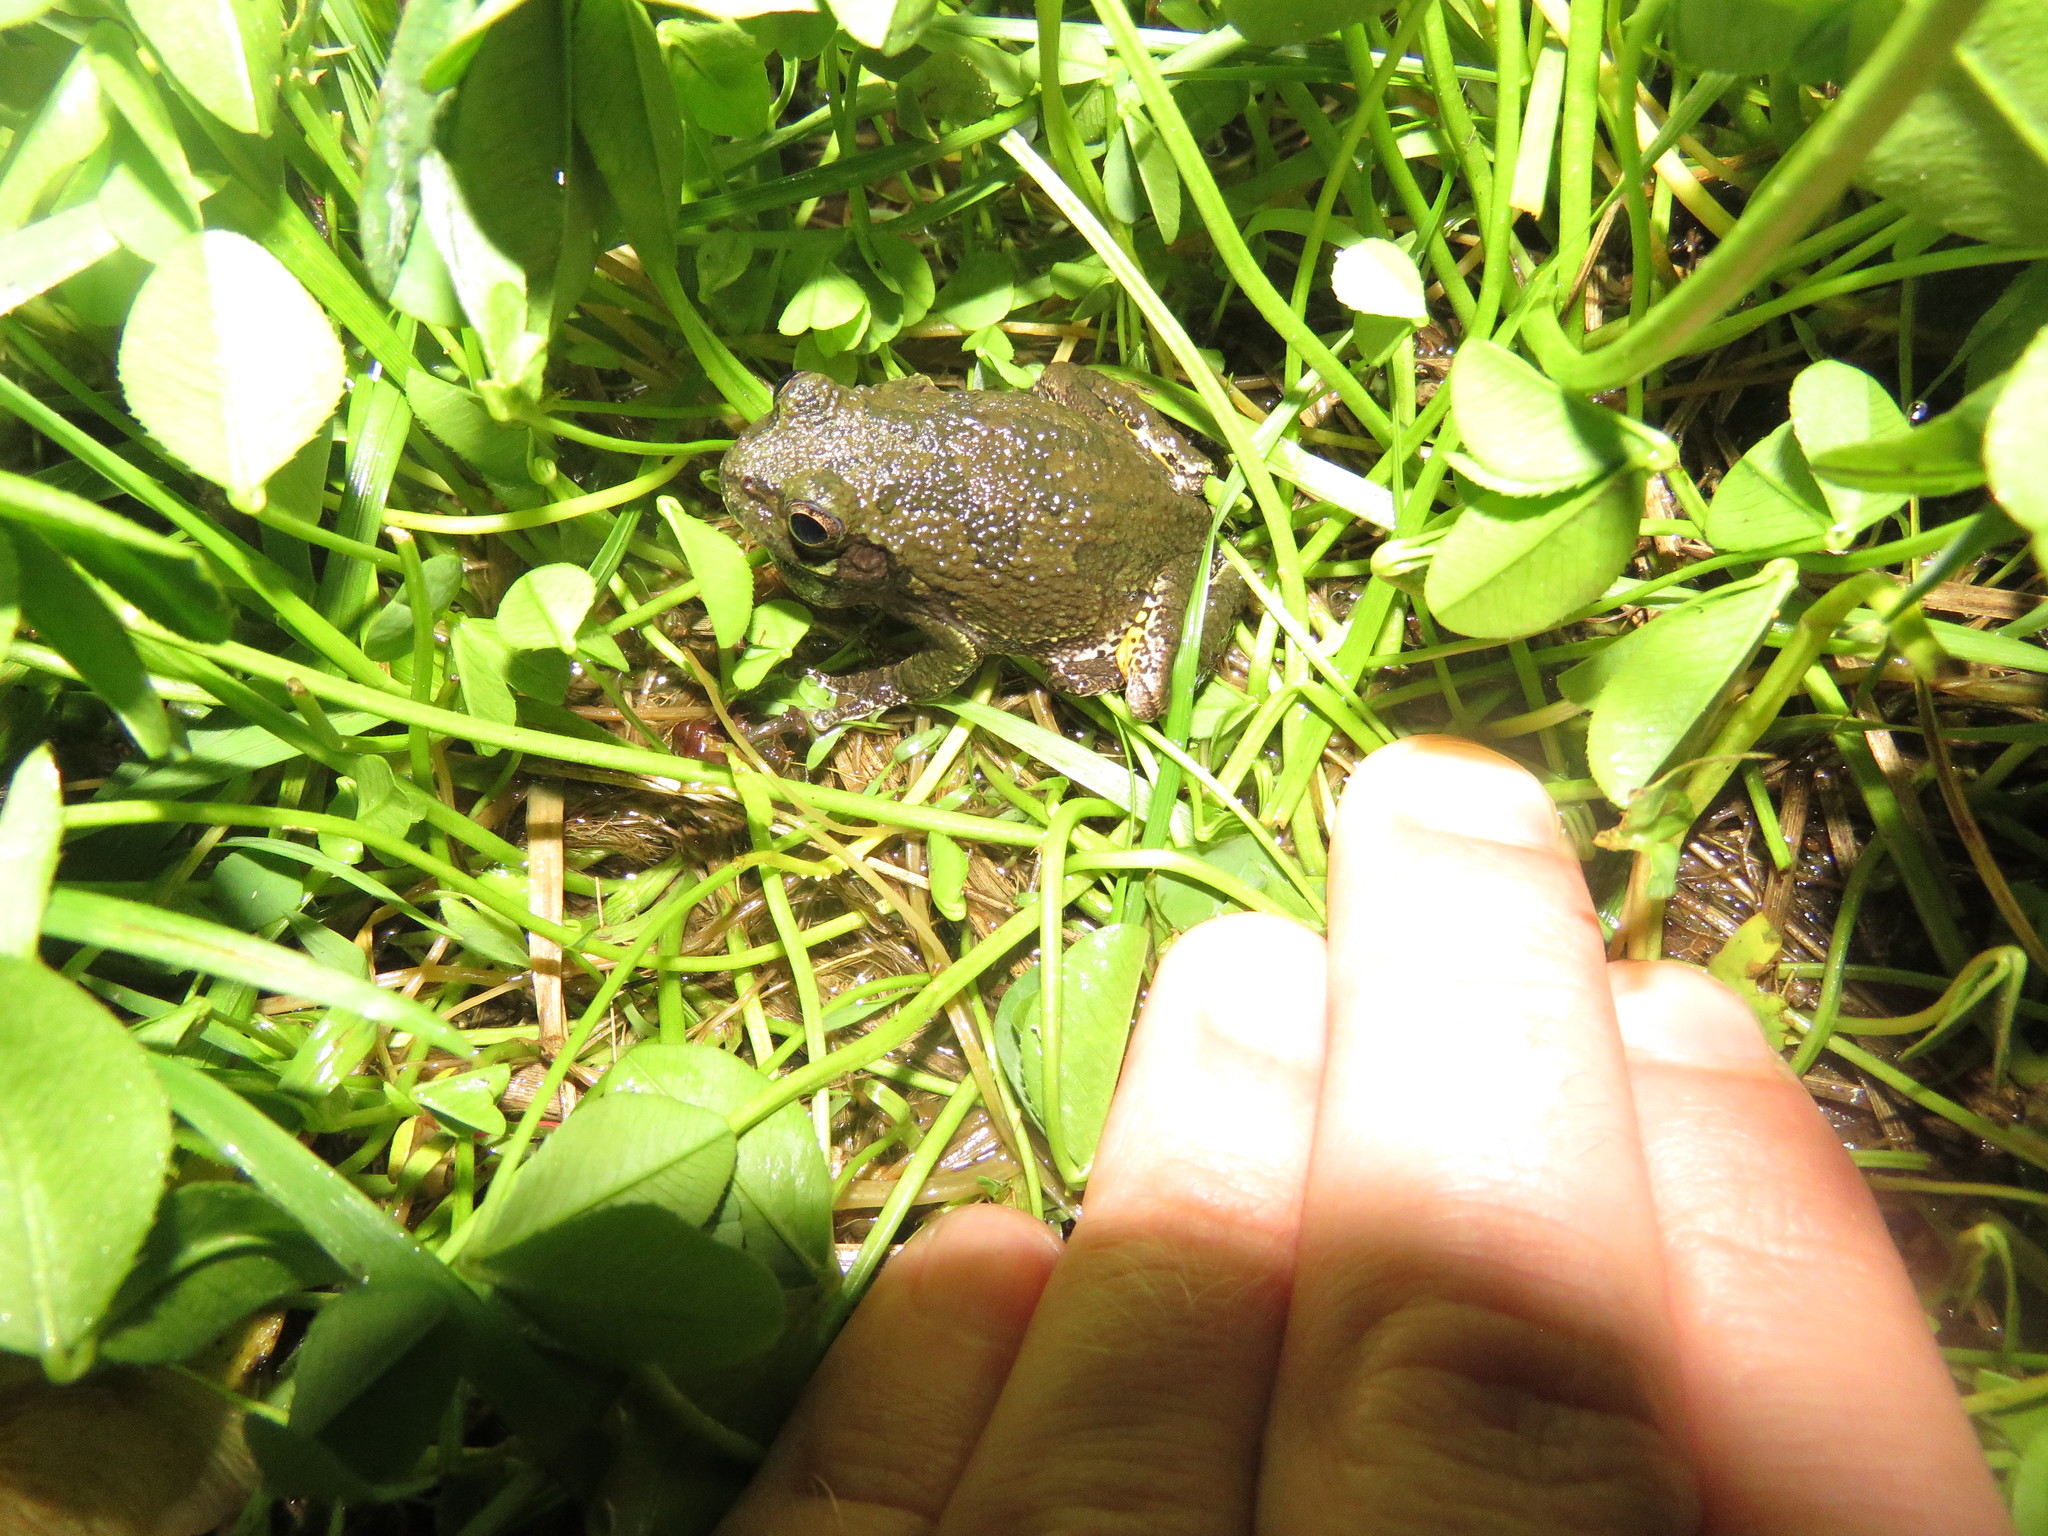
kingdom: Animalia
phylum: Chordata
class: Amphibia
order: Anura
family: Hylidae
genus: Dryophytes
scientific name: Dryophytes versicolor
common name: Gray treefrog
